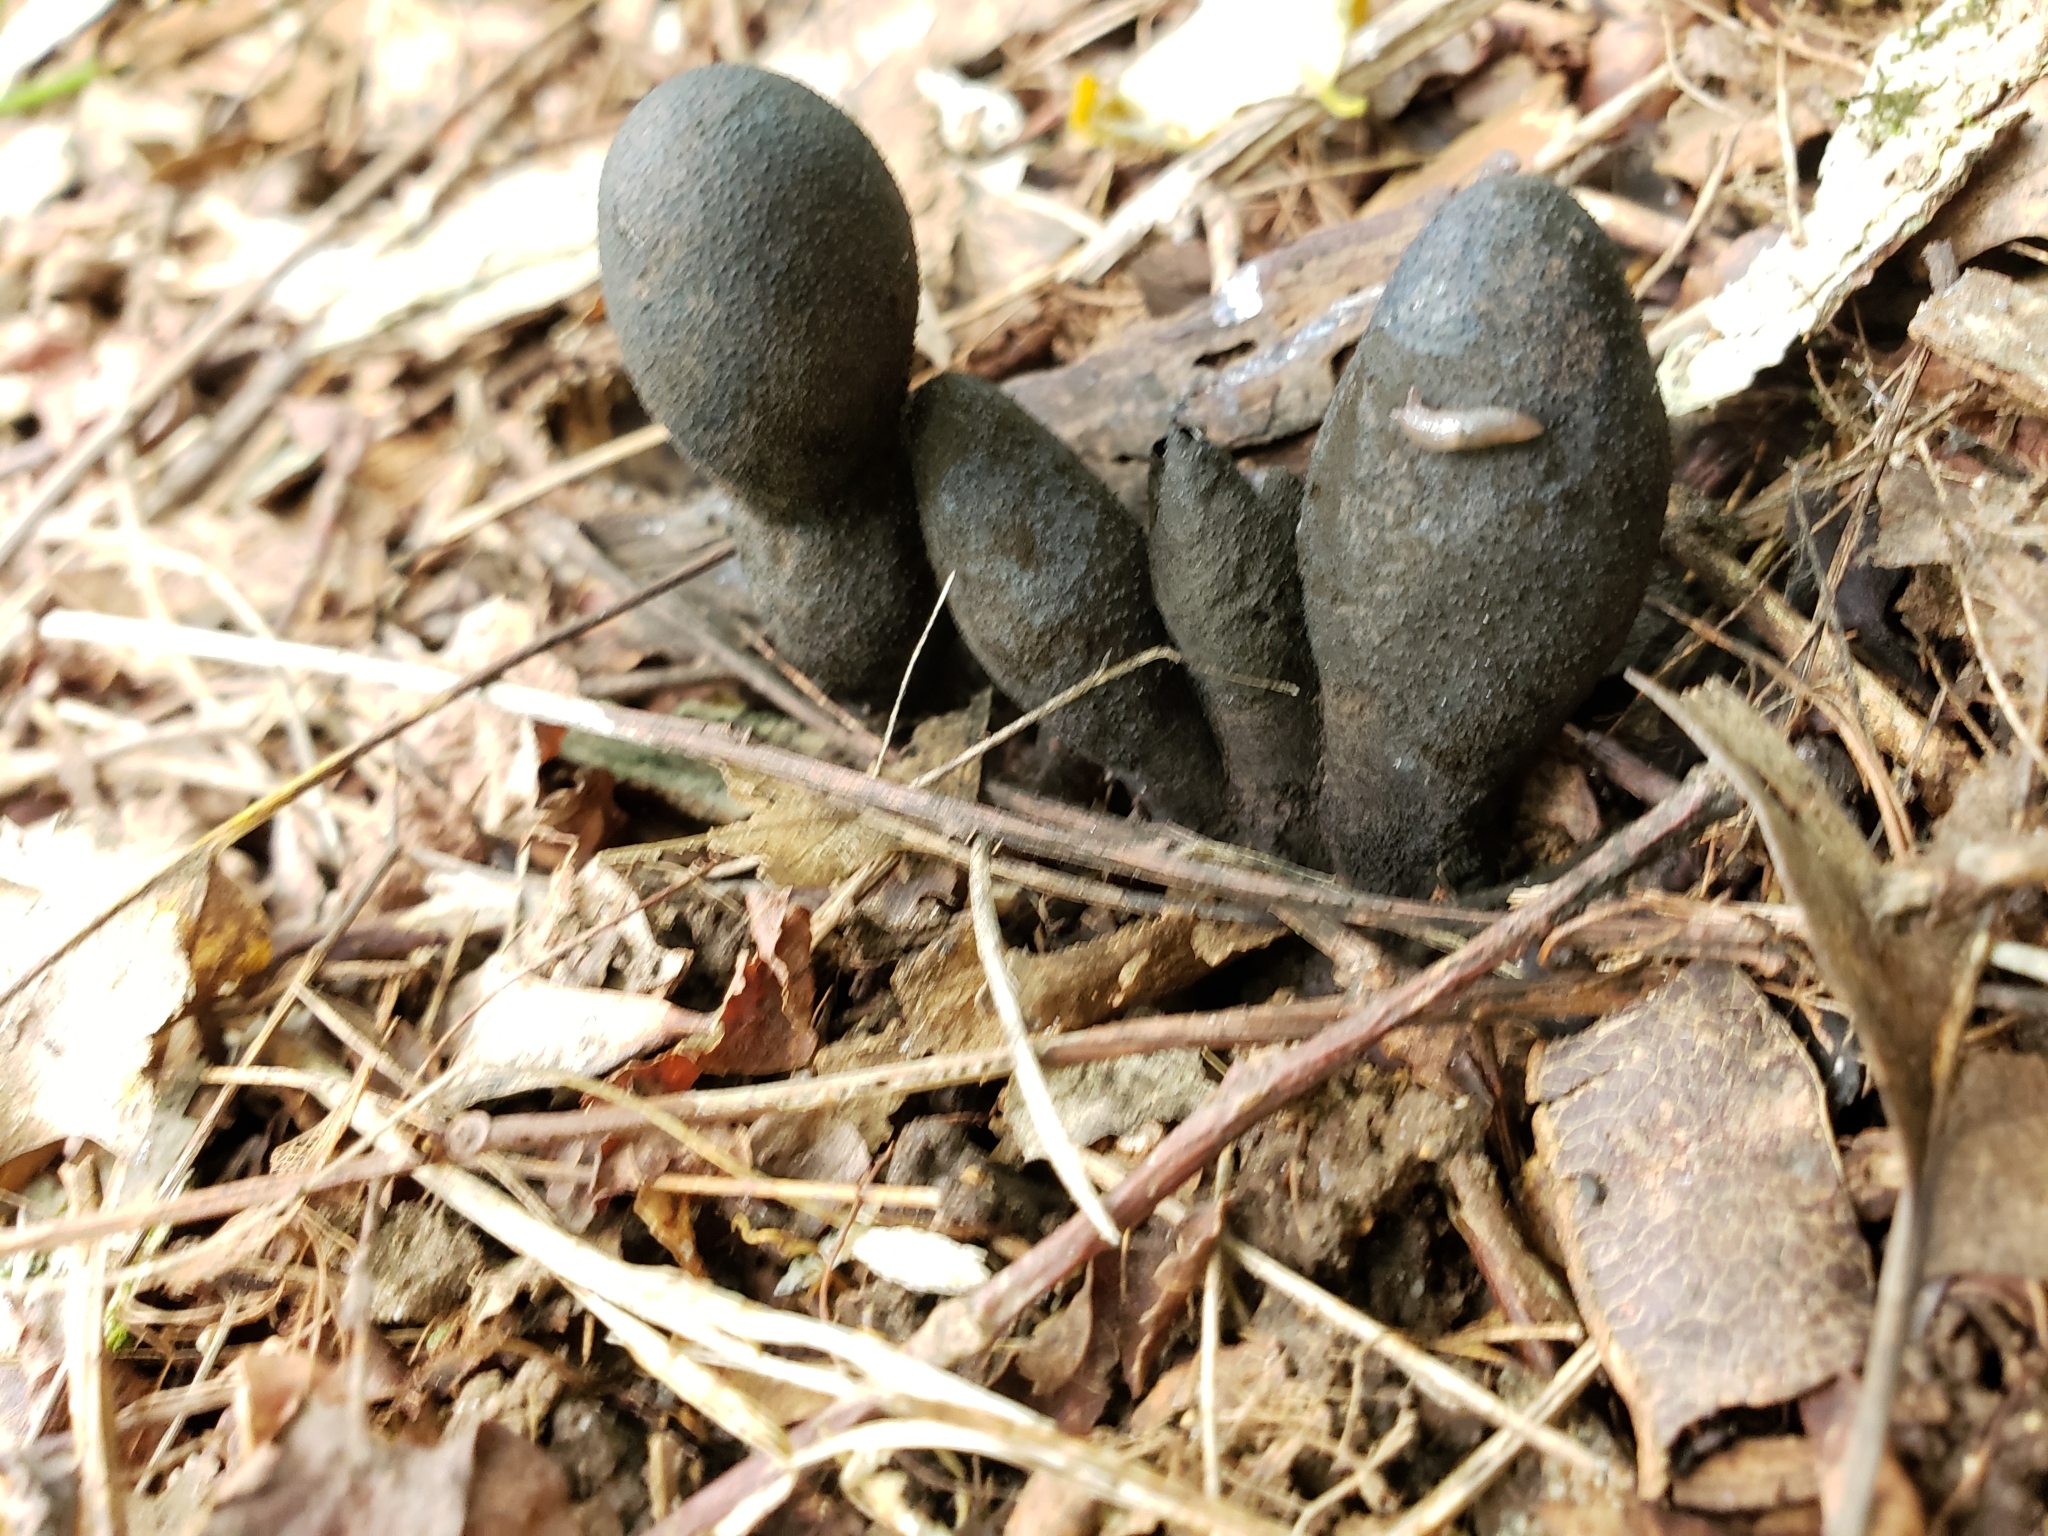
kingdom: Fungi
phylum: Ascomycota
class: Sordariomycetes
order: Xylariales
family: Xylariaceae
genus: Xylaria
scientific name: Xylaria polymorpha
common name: Dead man's fingers
